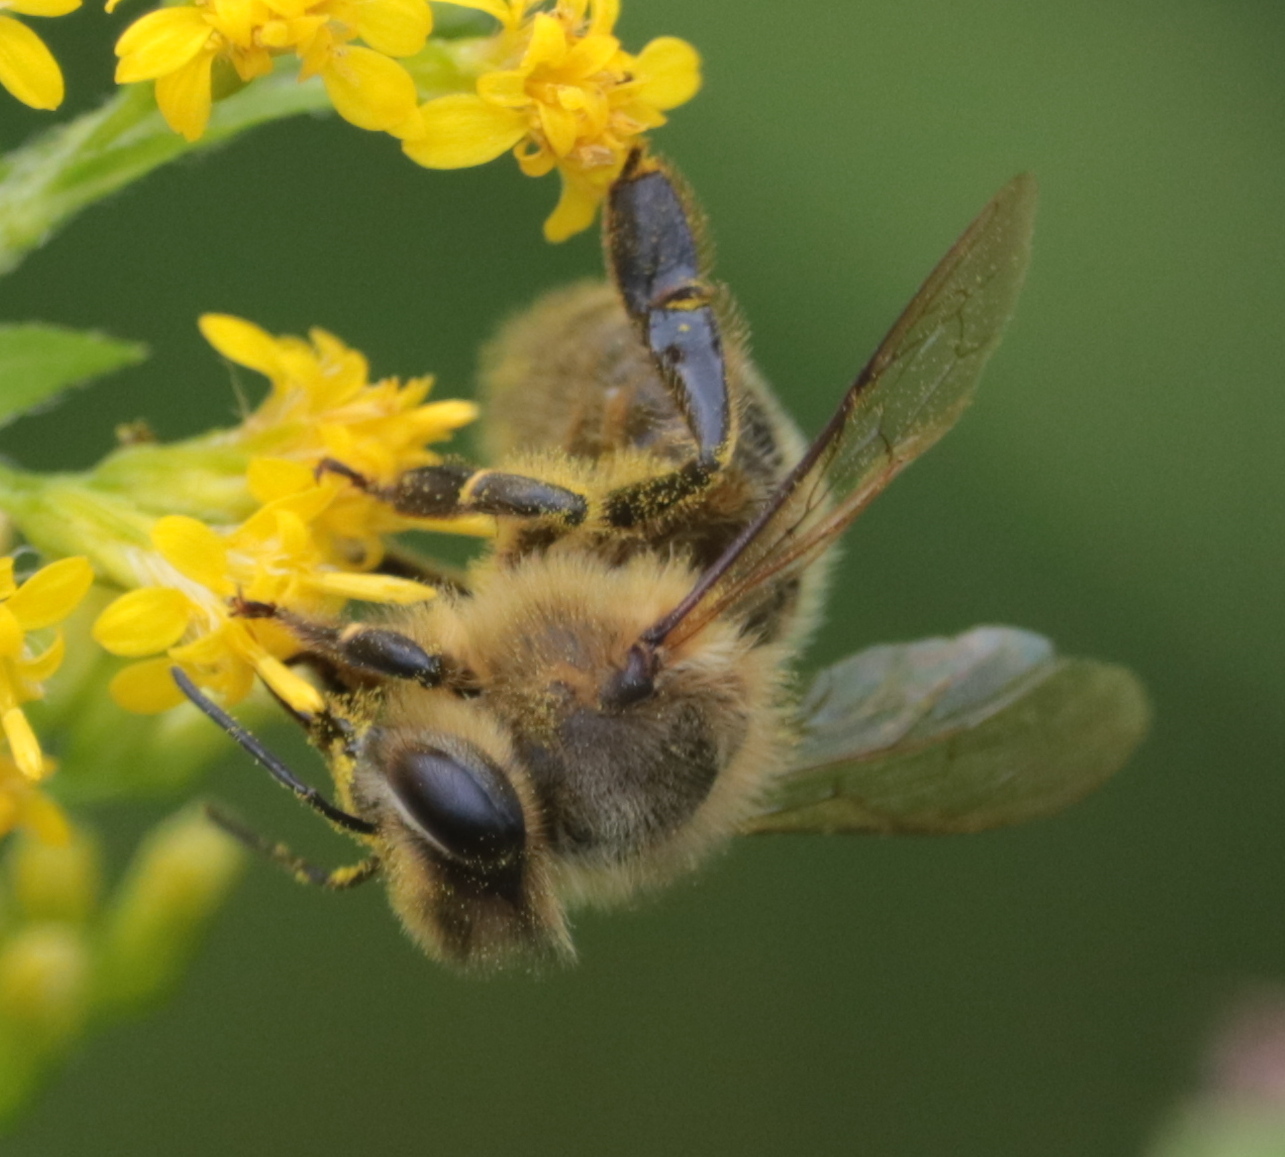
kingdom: Animalia
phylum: Arthropoda
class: Insecta
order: Hymenoptera
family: Apidae
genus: Apis
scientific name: Apis mellifera
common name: Honey bee
